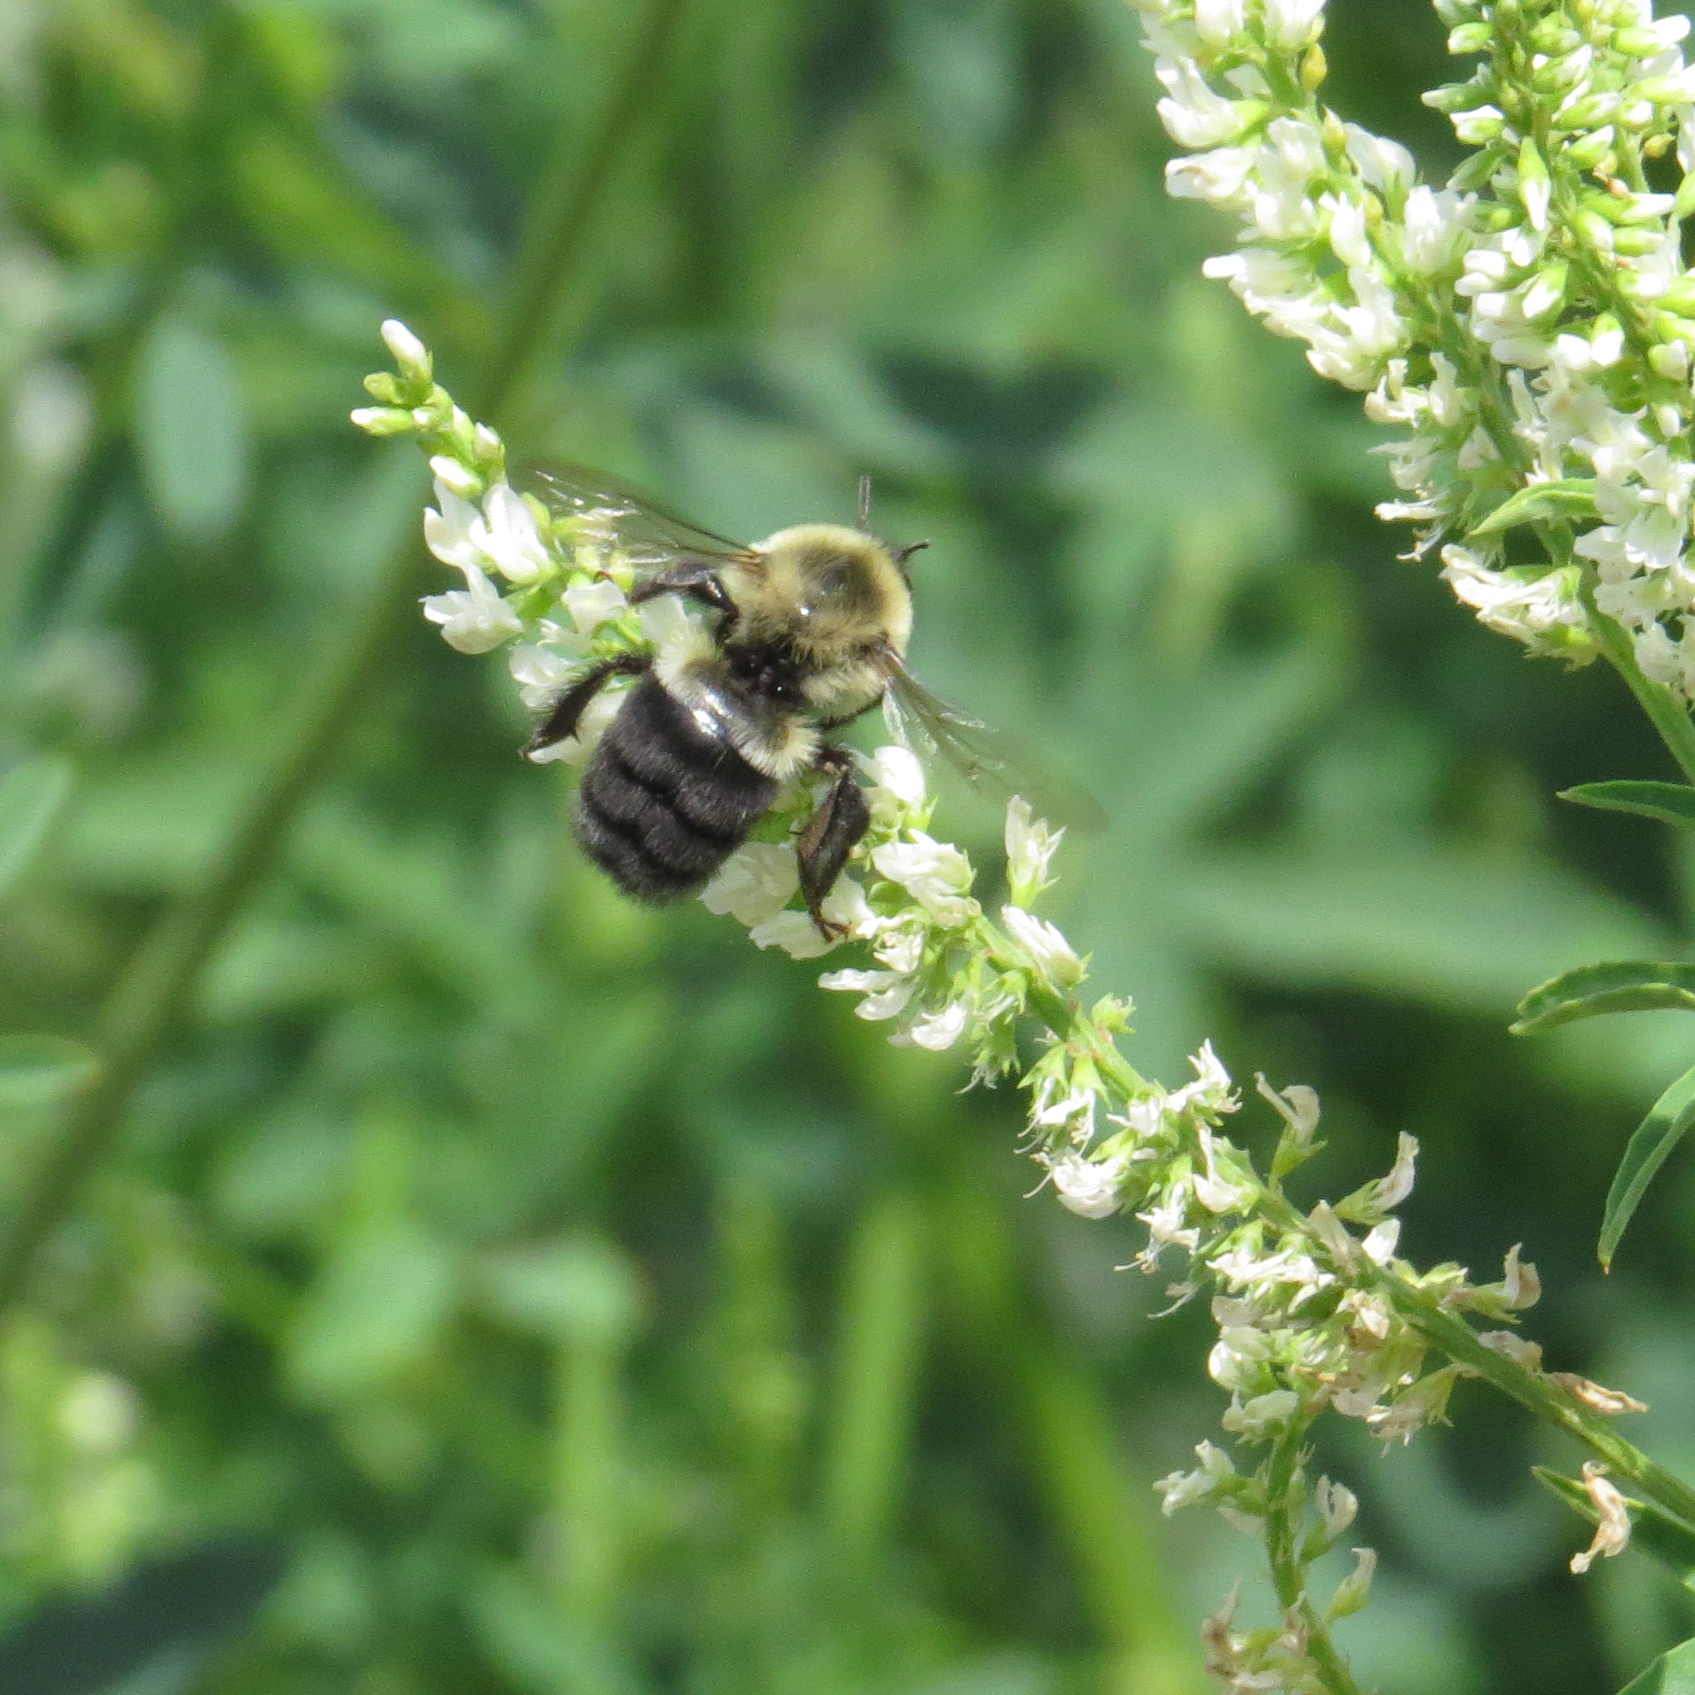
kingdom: Animalia
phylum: Arthropoda
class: Insecta
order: Hymenoptera
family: Apidae
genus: Bombus
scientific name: Bombus impatiens
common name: Common eastern bumble bee
